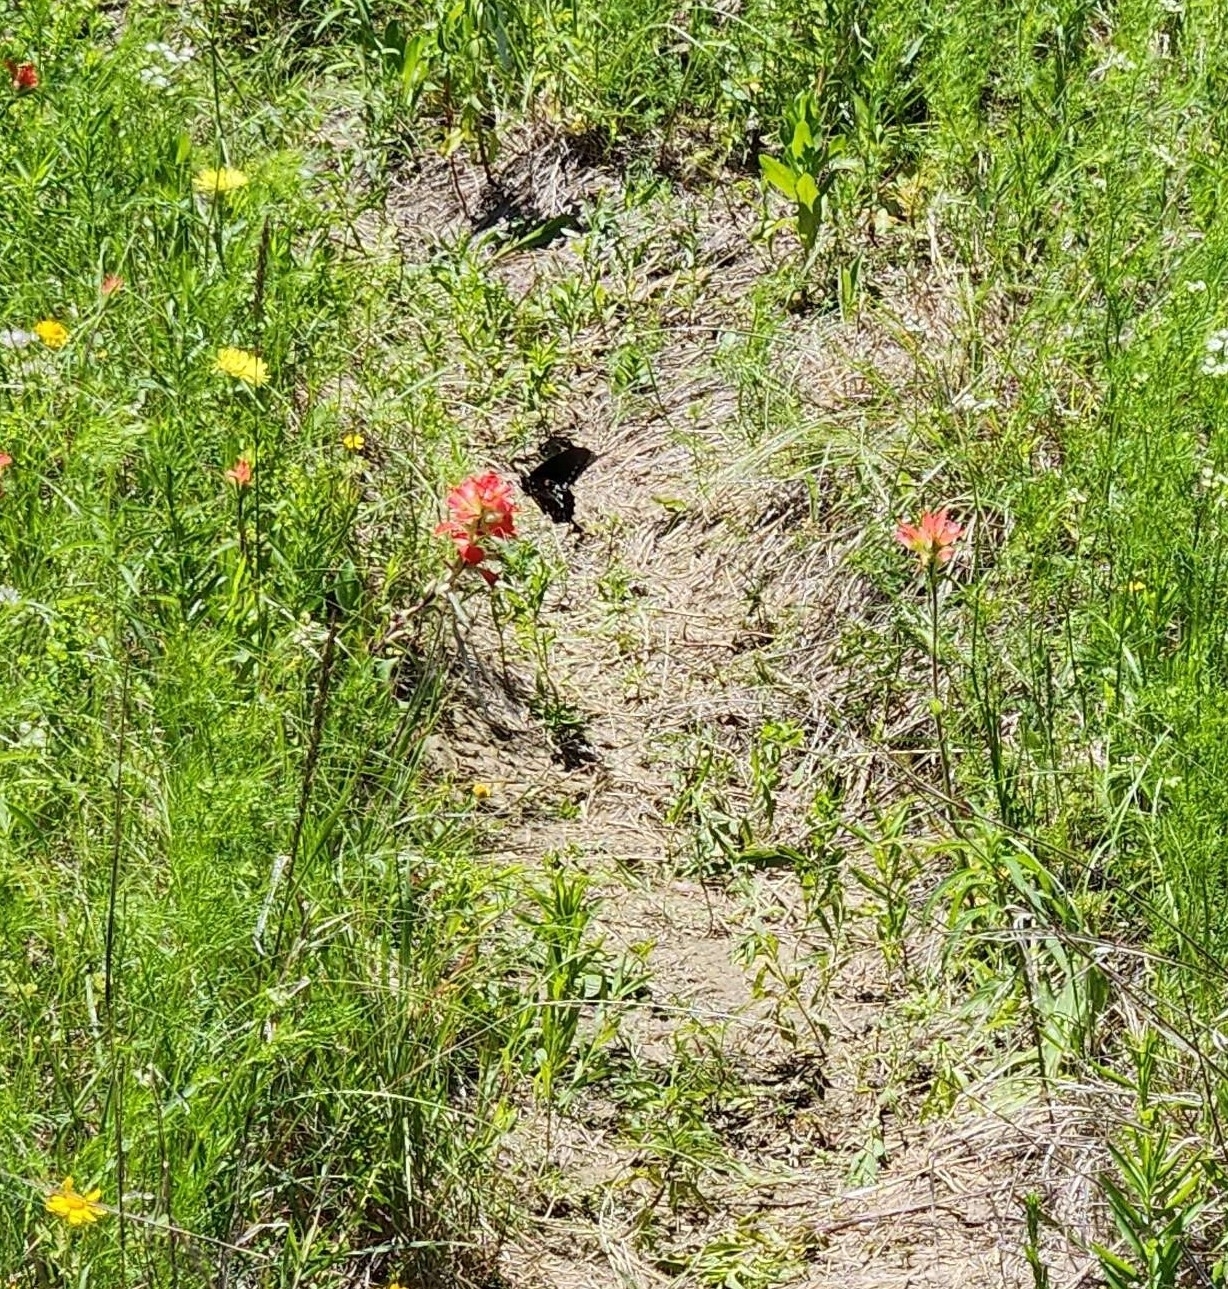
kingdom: Animalia
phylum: Arthropoda
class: Insecta
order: Lepidoptera
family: Papilionidae
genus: Battus
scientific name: Battus philenor
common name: Pipevine swallowtail
